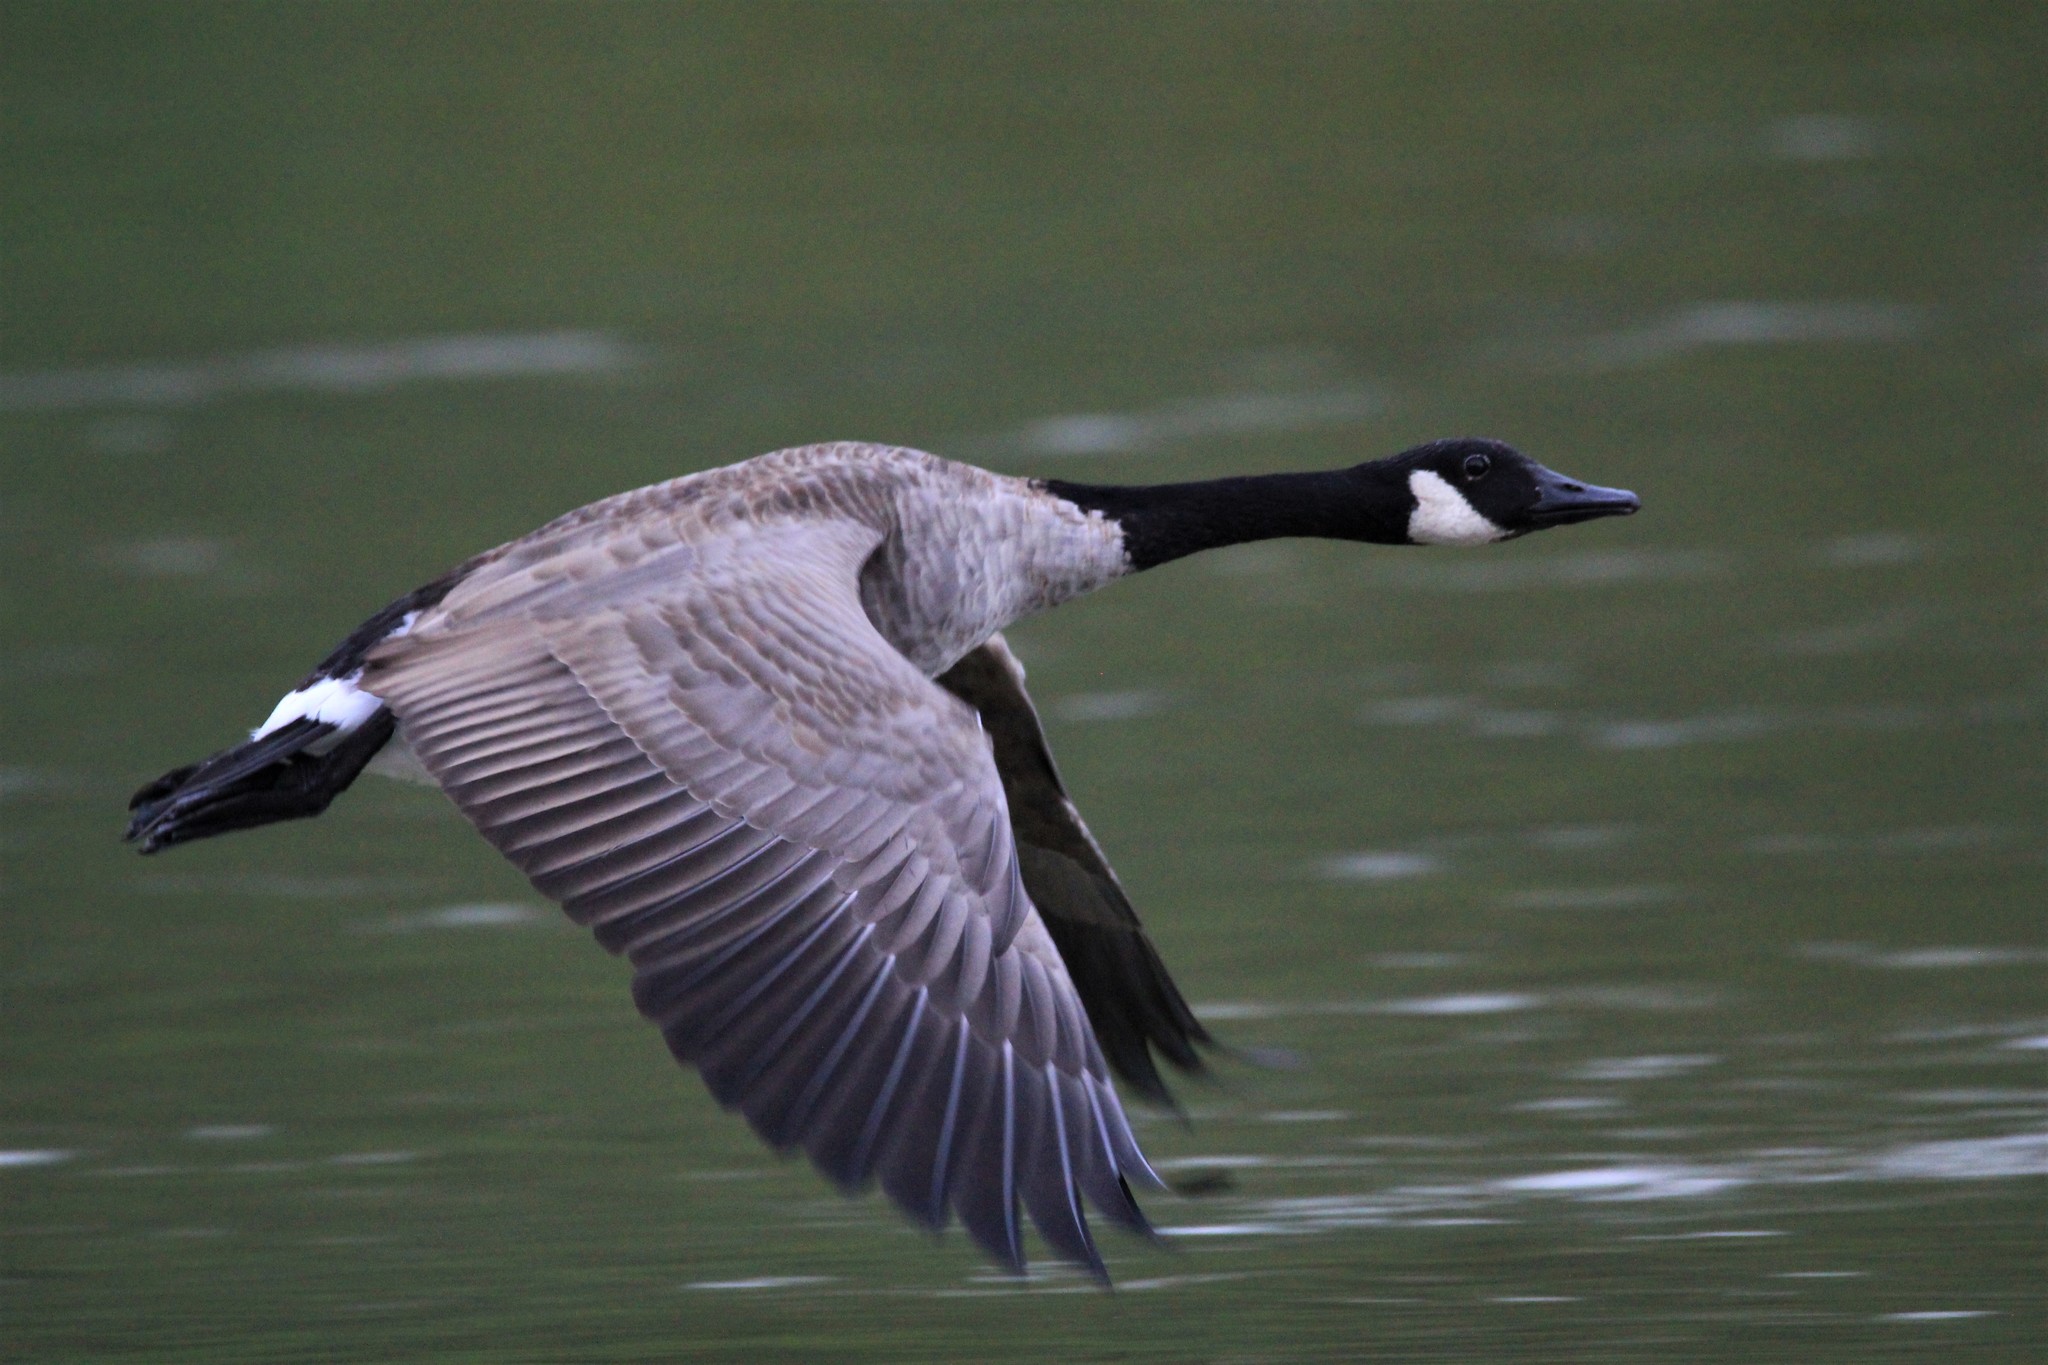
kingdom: Animalia
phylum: Chordata
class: Aves
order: Anseriformes
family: Anatidae
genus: Branta
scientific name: Branta canadensis
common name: Canada goose
